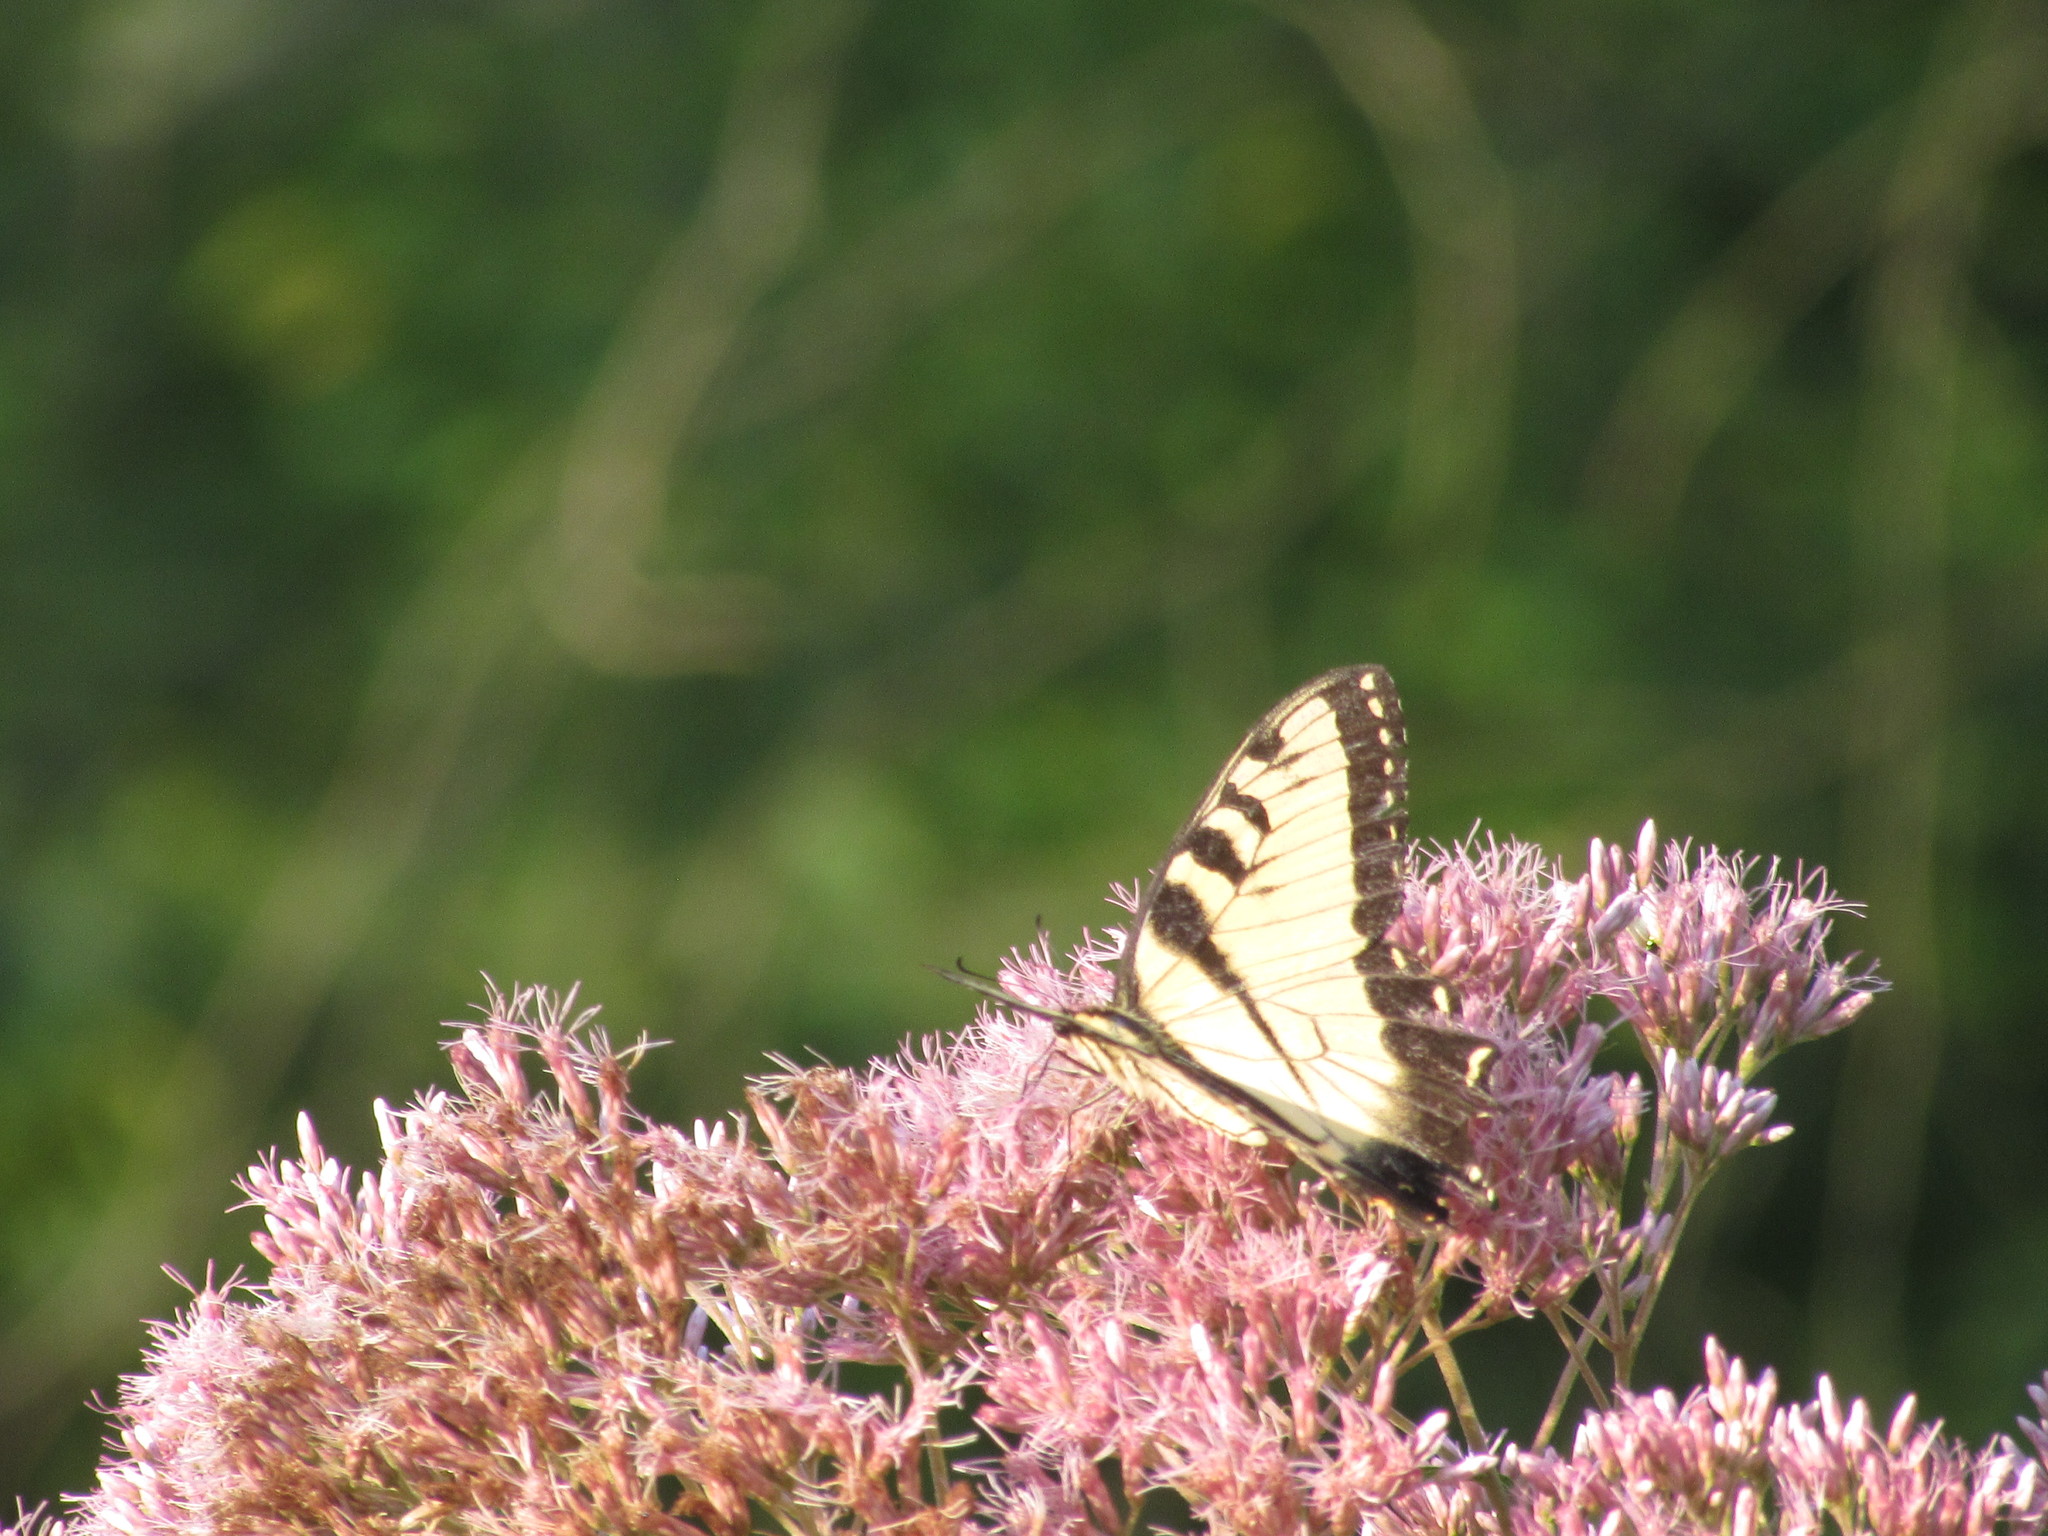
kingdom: Animalia
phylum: Arthropoda
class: Insecta
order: Lepidoptera
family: Papilionidae
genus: Papilio
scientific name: Papilio glaucus
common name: Tiger swallowtail
